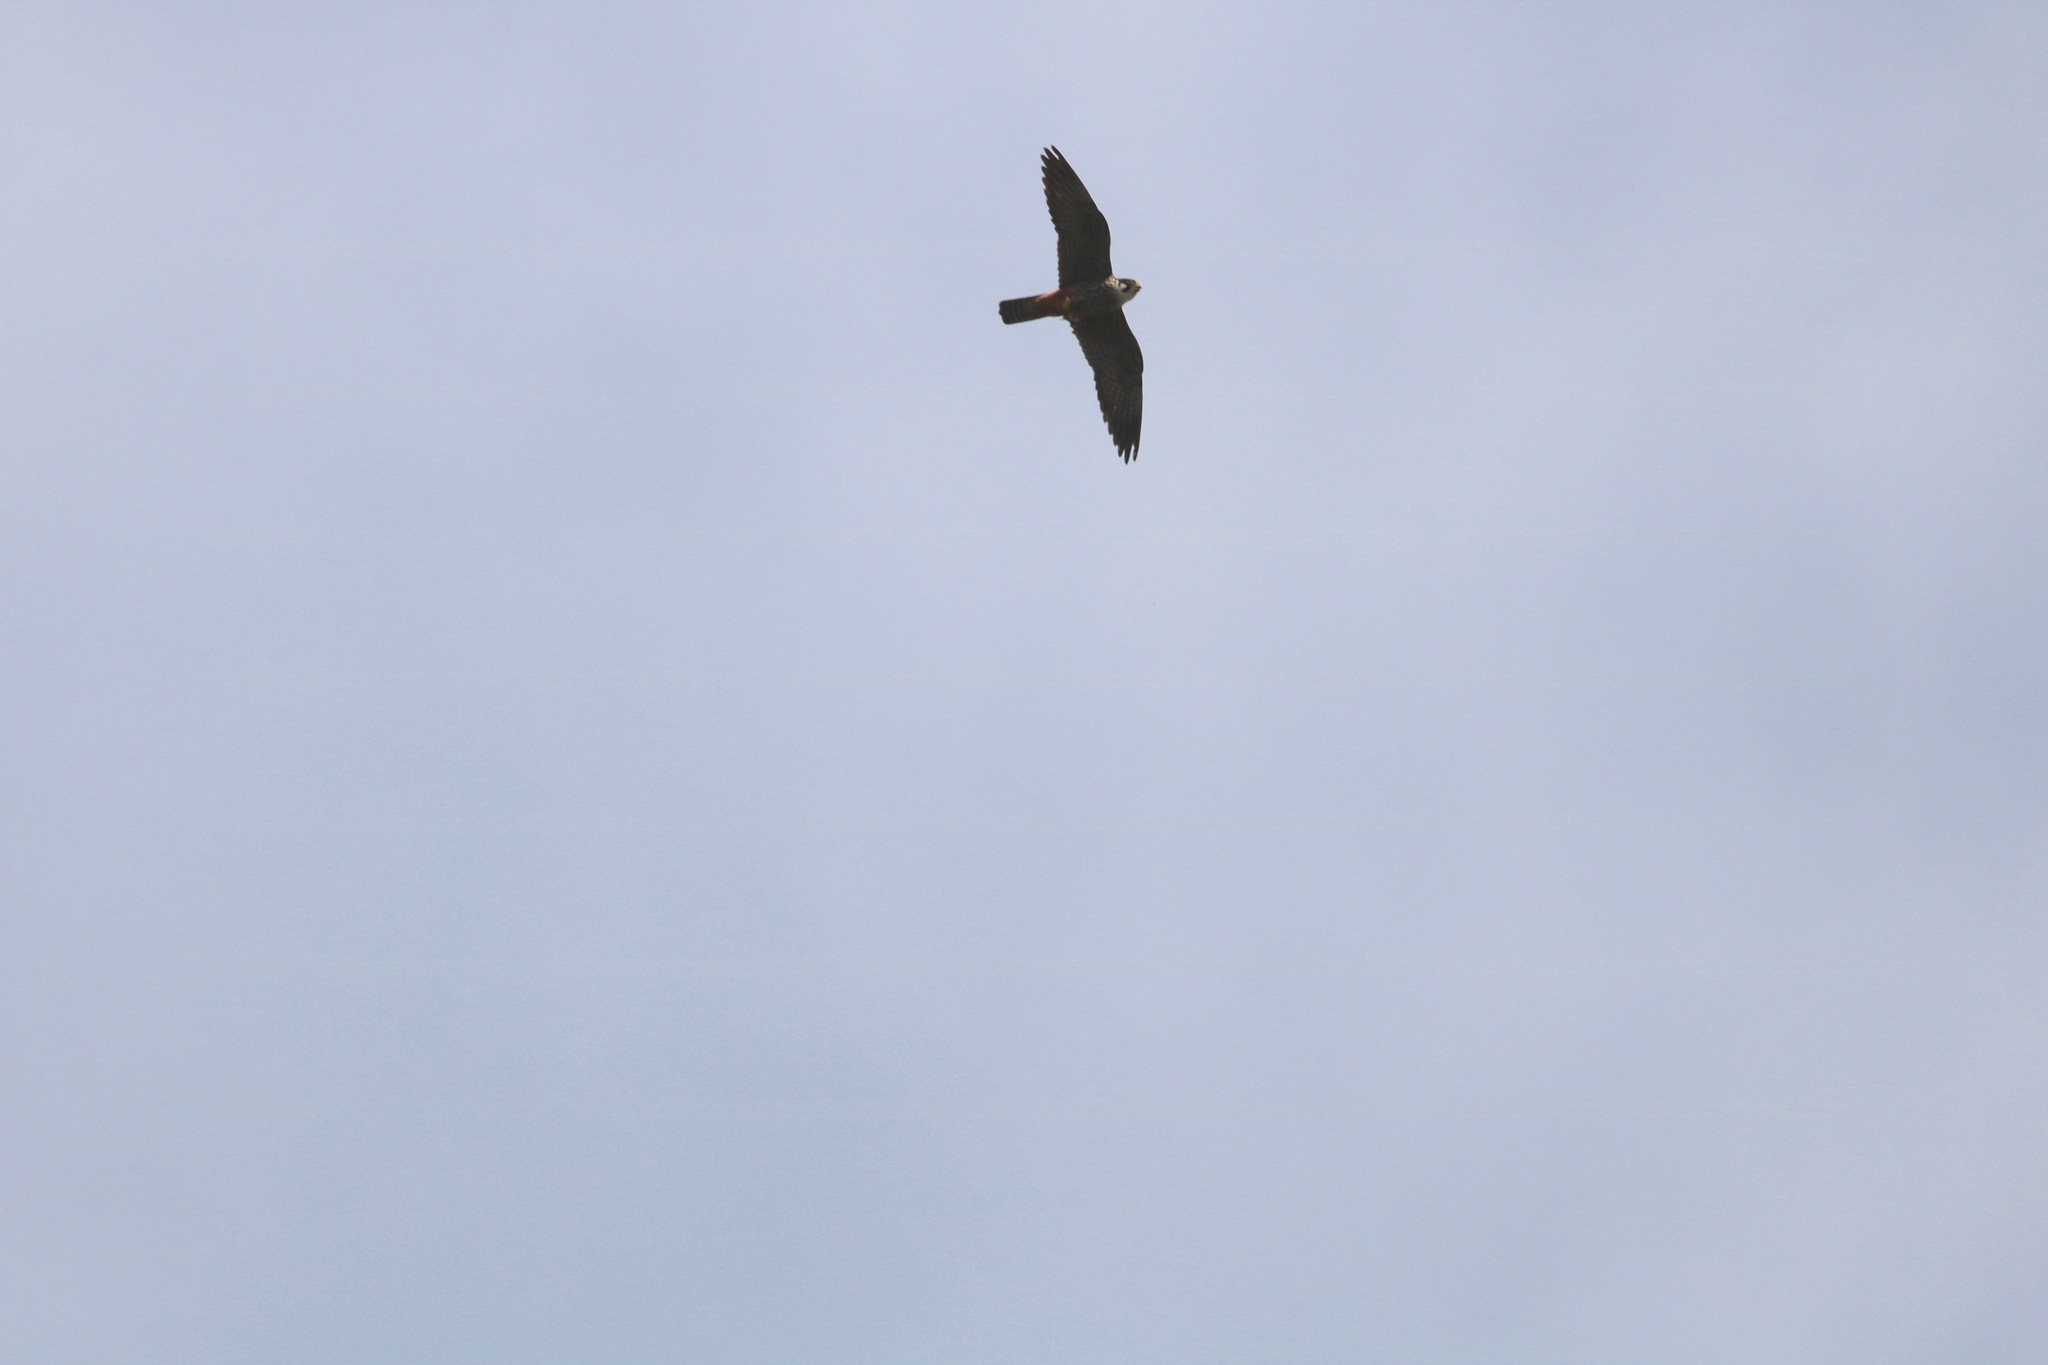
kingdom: Animalia
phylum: Chordata
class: Aves
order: Falconiformes
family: Falconidae
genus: Falco
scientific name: Falco subbuteo
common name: Eurasian hobby
